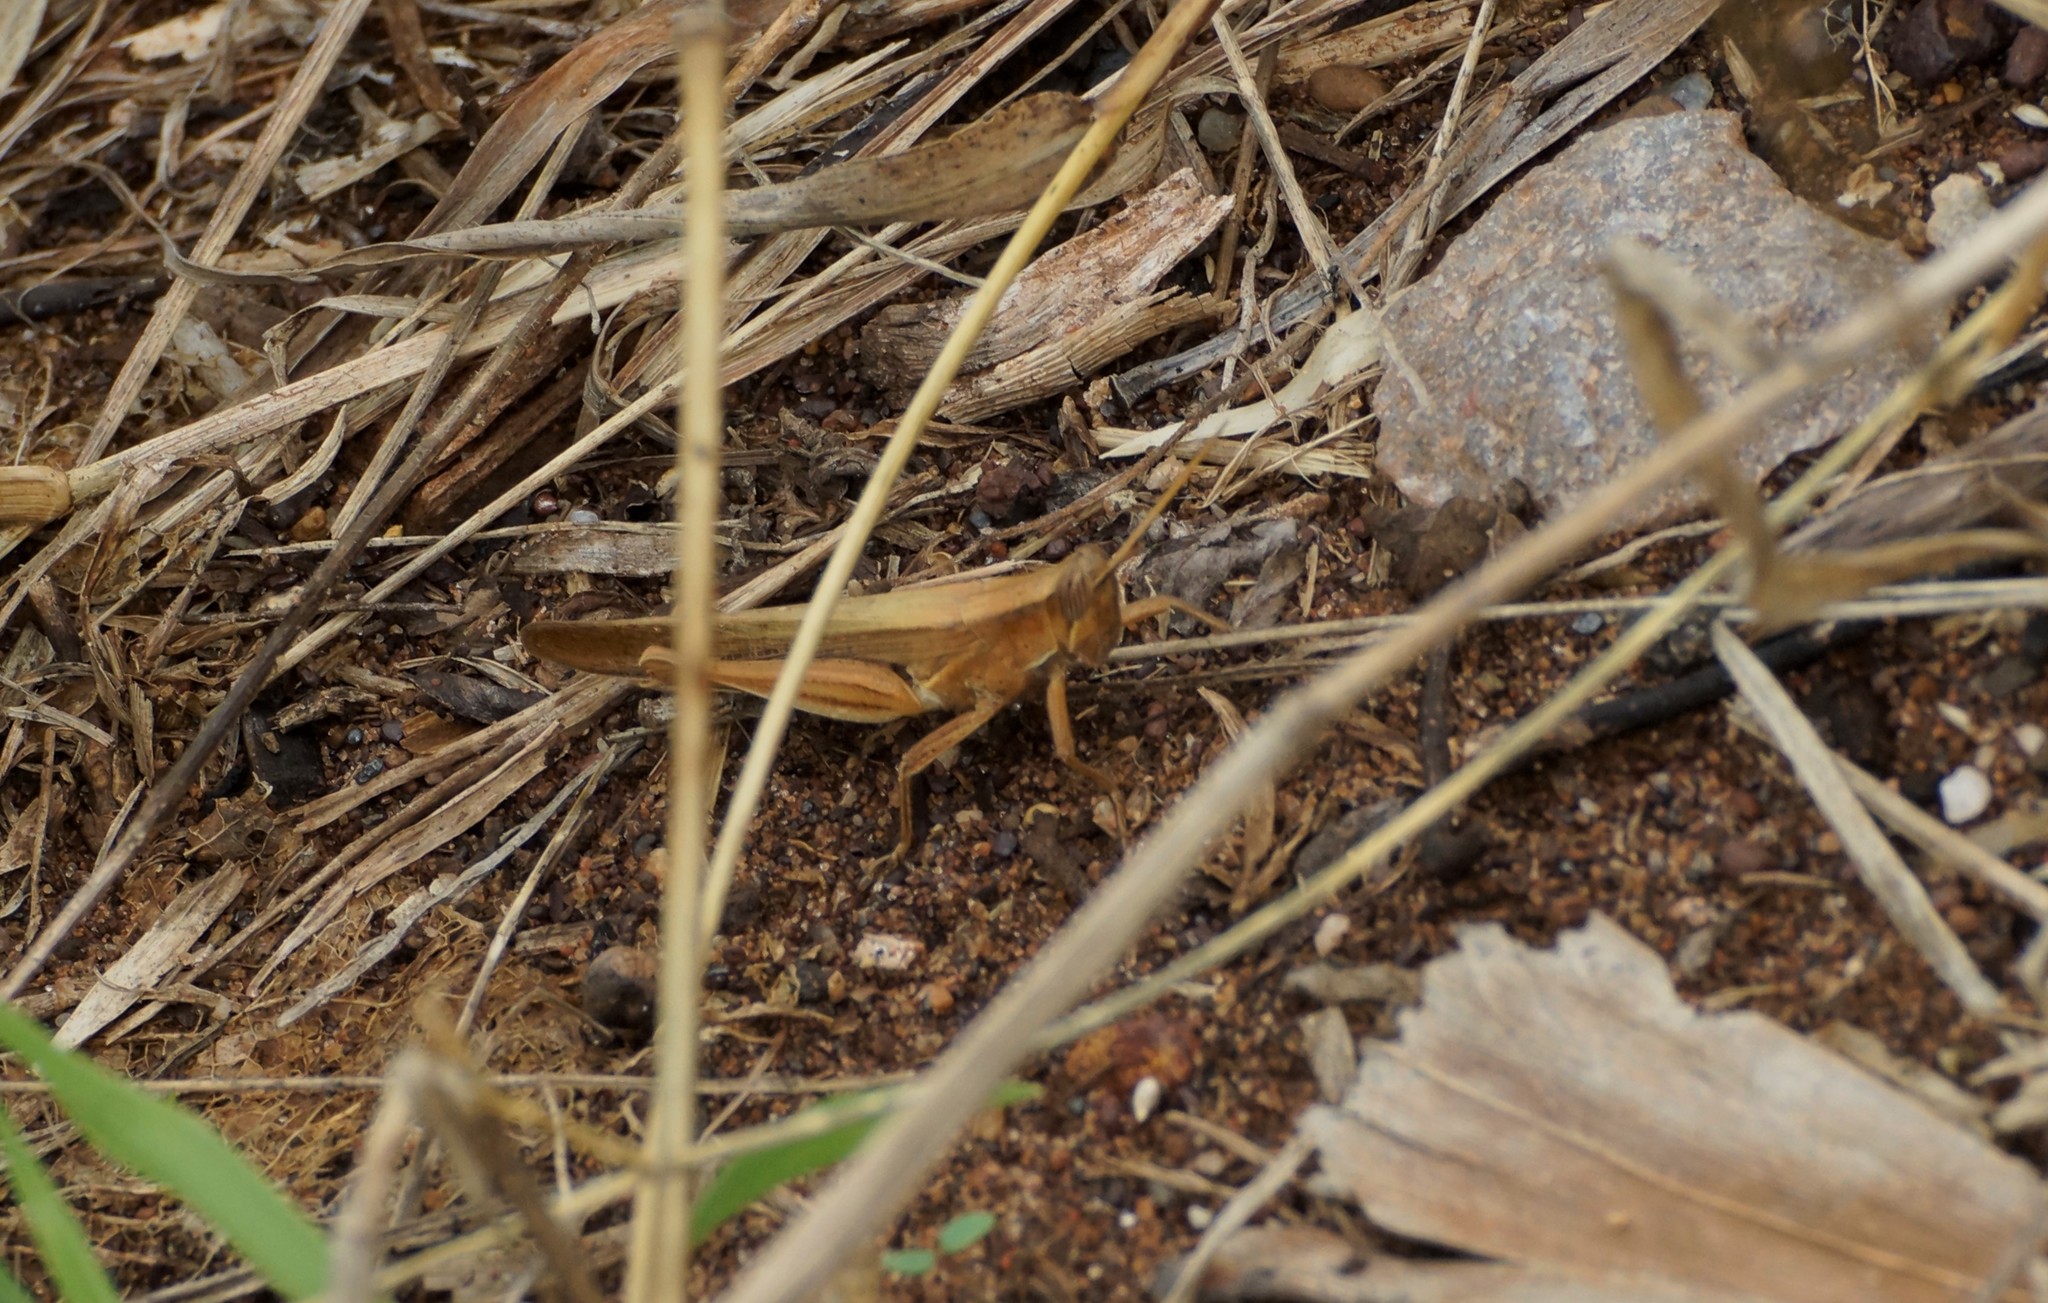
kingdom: Animalia
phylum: Arthropoda
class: Insecta
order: Orthoptera
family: Acrididae
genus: Stenocatantops
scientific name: Stenocatantops keyi
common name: Key's sharptail
